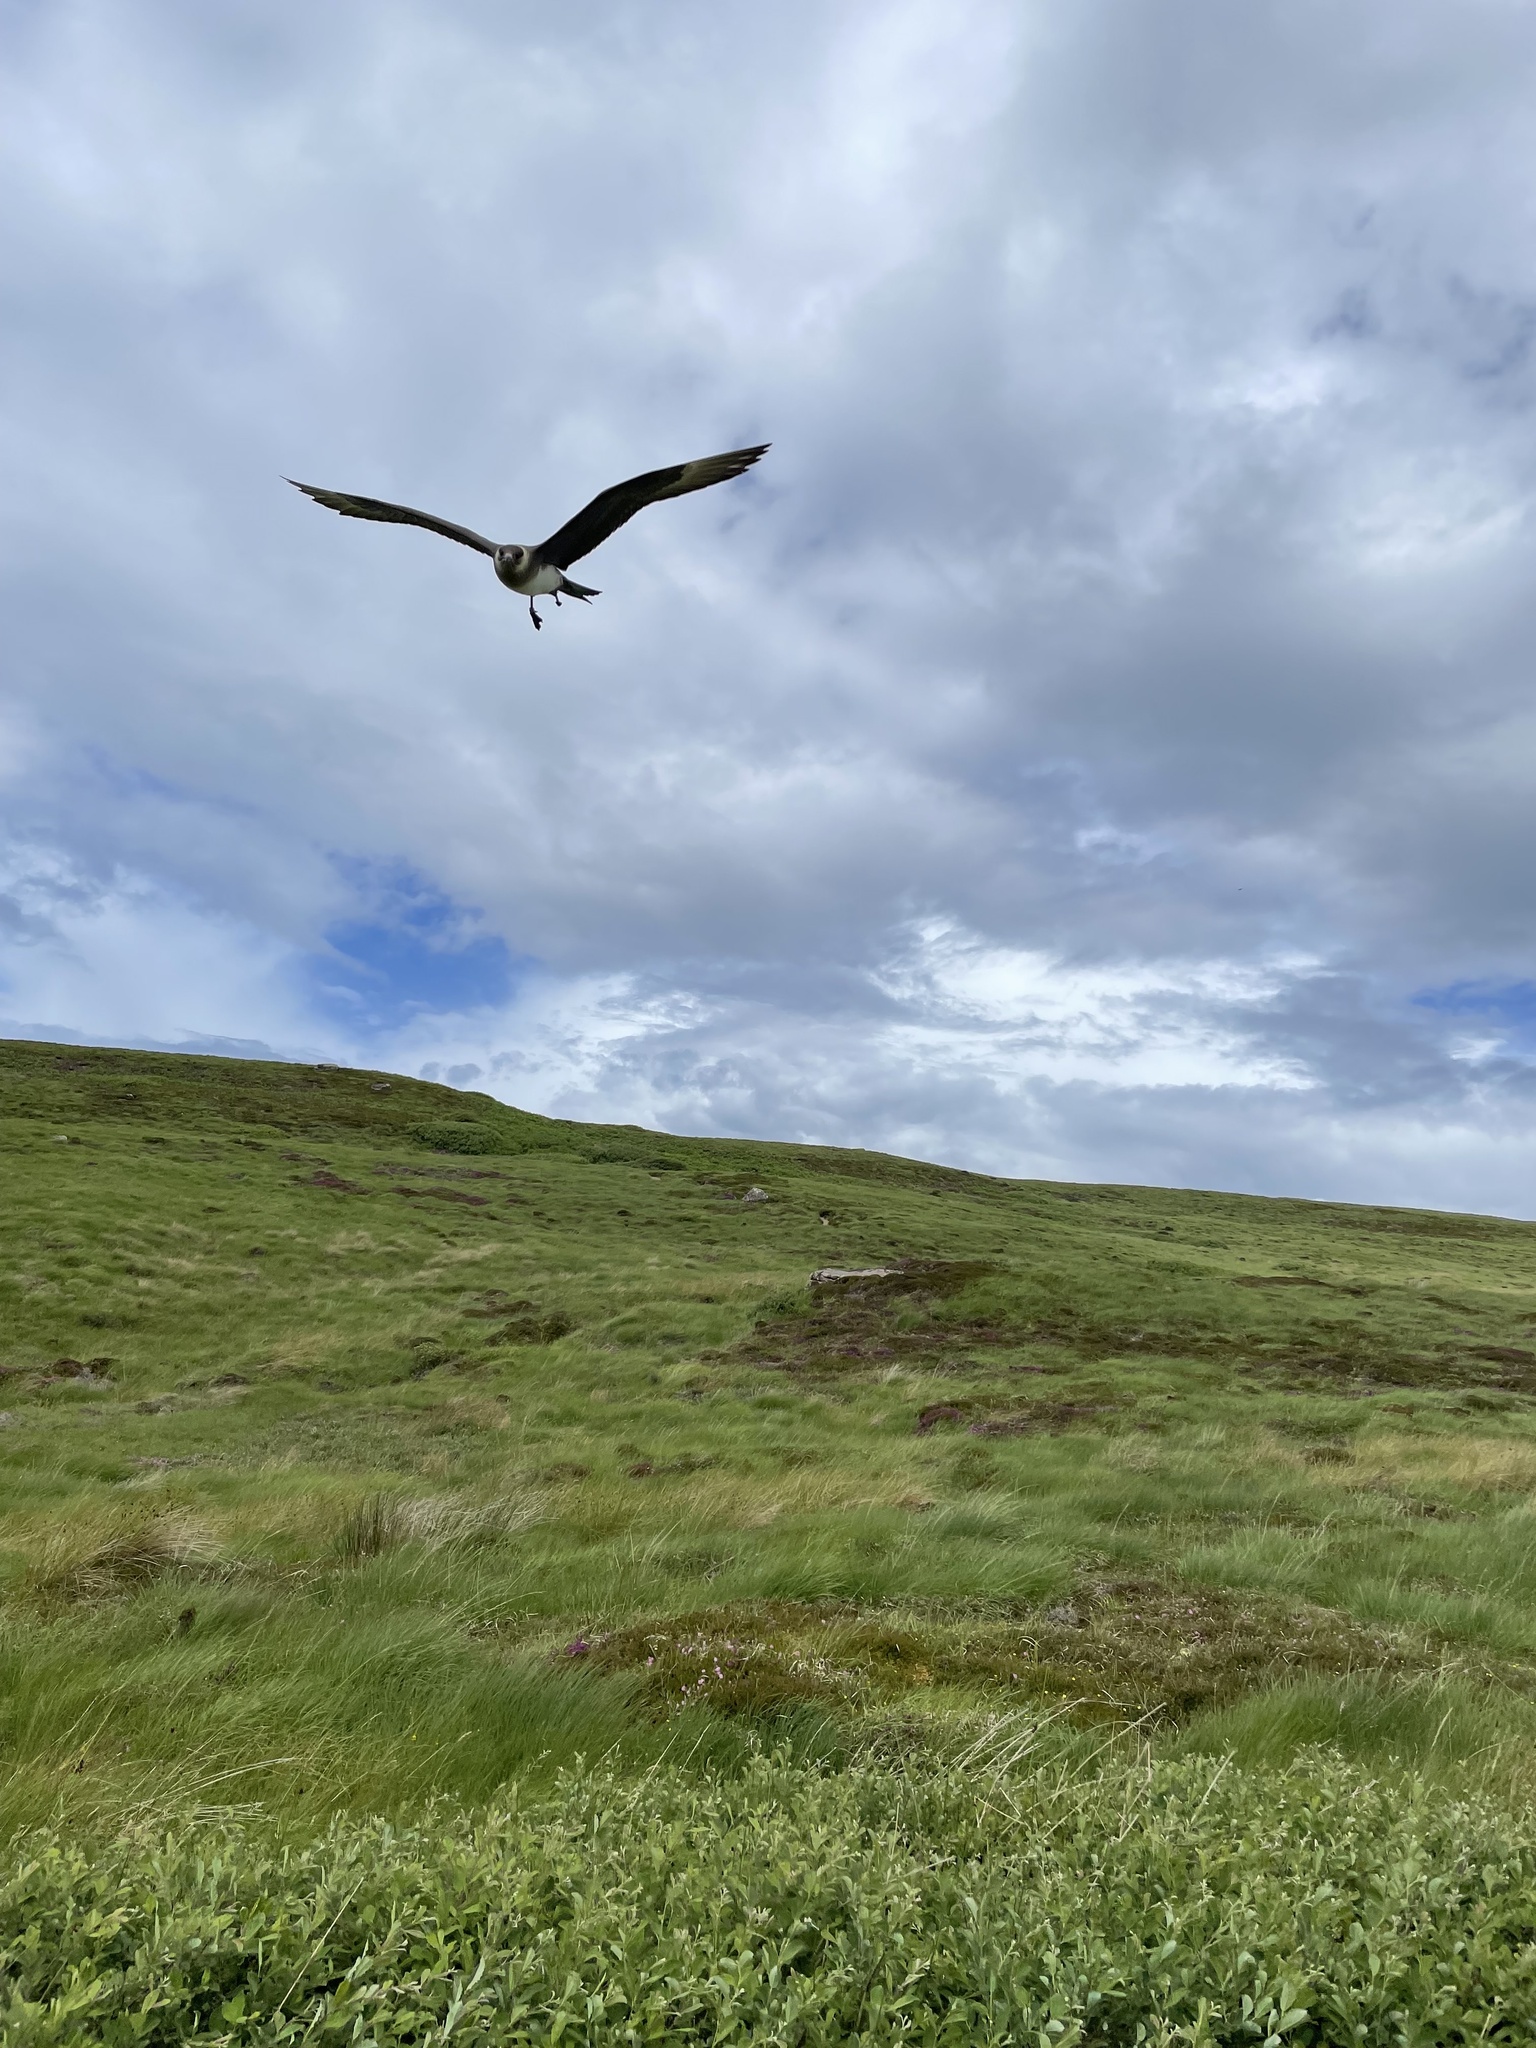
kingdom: Animalia
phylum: Chordata
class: Aves
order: Charadriiformes
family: Stercorariidae
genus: Stercorarius
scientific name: Stercorarius parasiticus
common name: Parasitic jaeger
